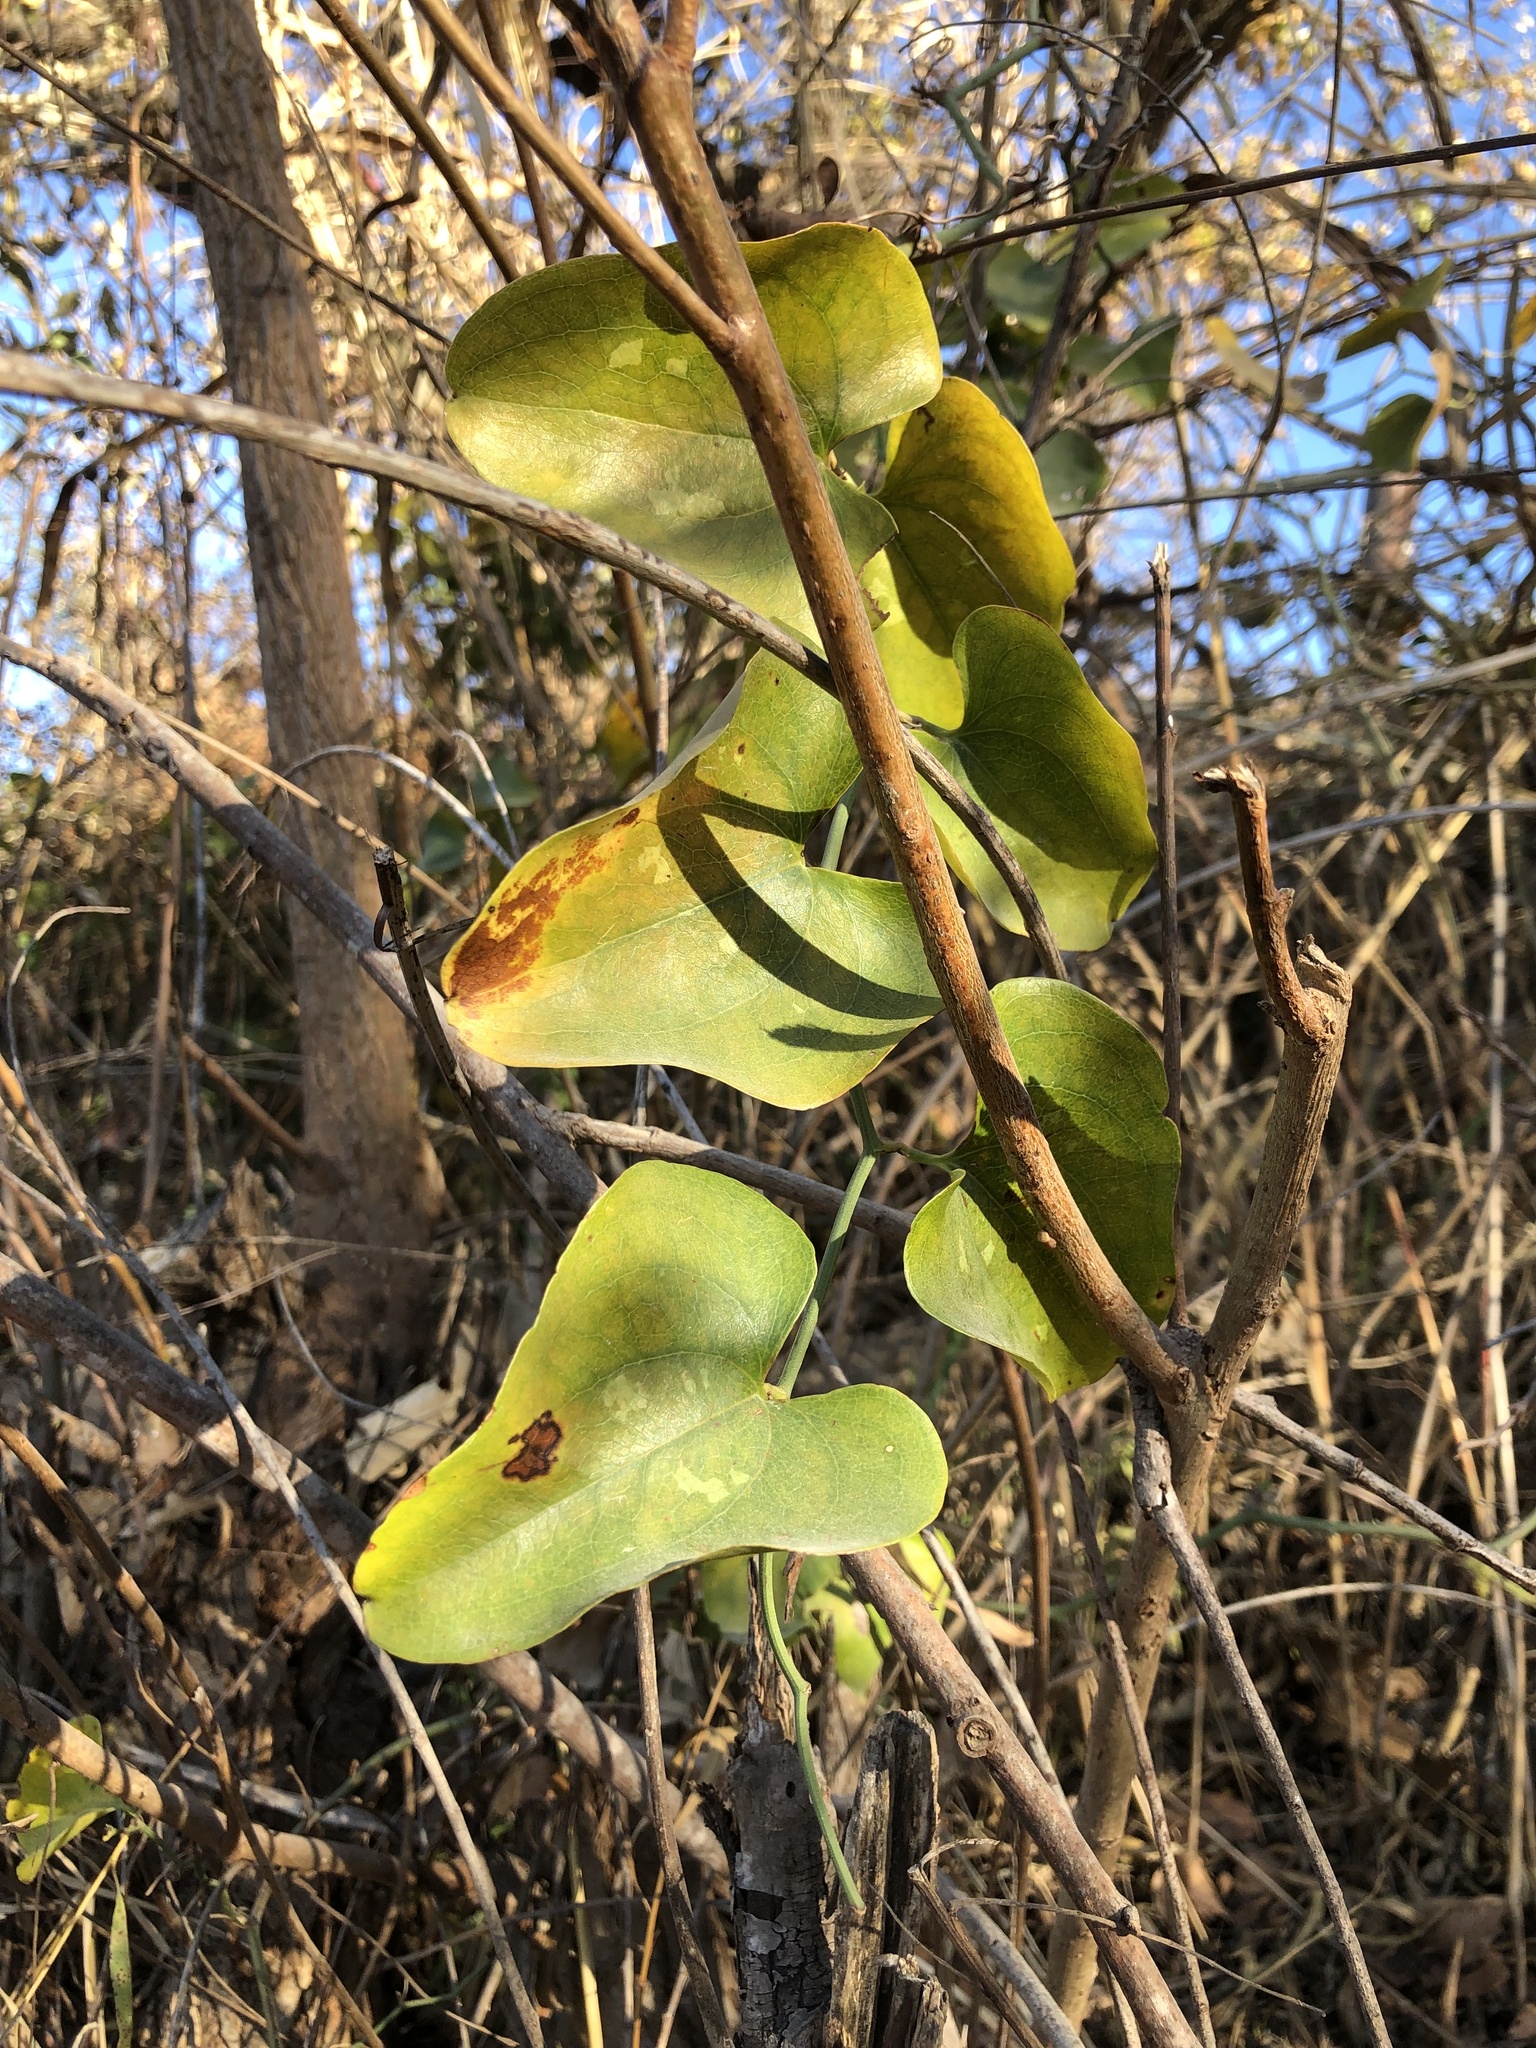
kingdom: Plantae
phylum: Tracheophyta
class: Liliopsida
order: Liliales
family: Smilacaceae
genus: Smilax
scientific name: Smilax bona-nox
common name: Catbrier
